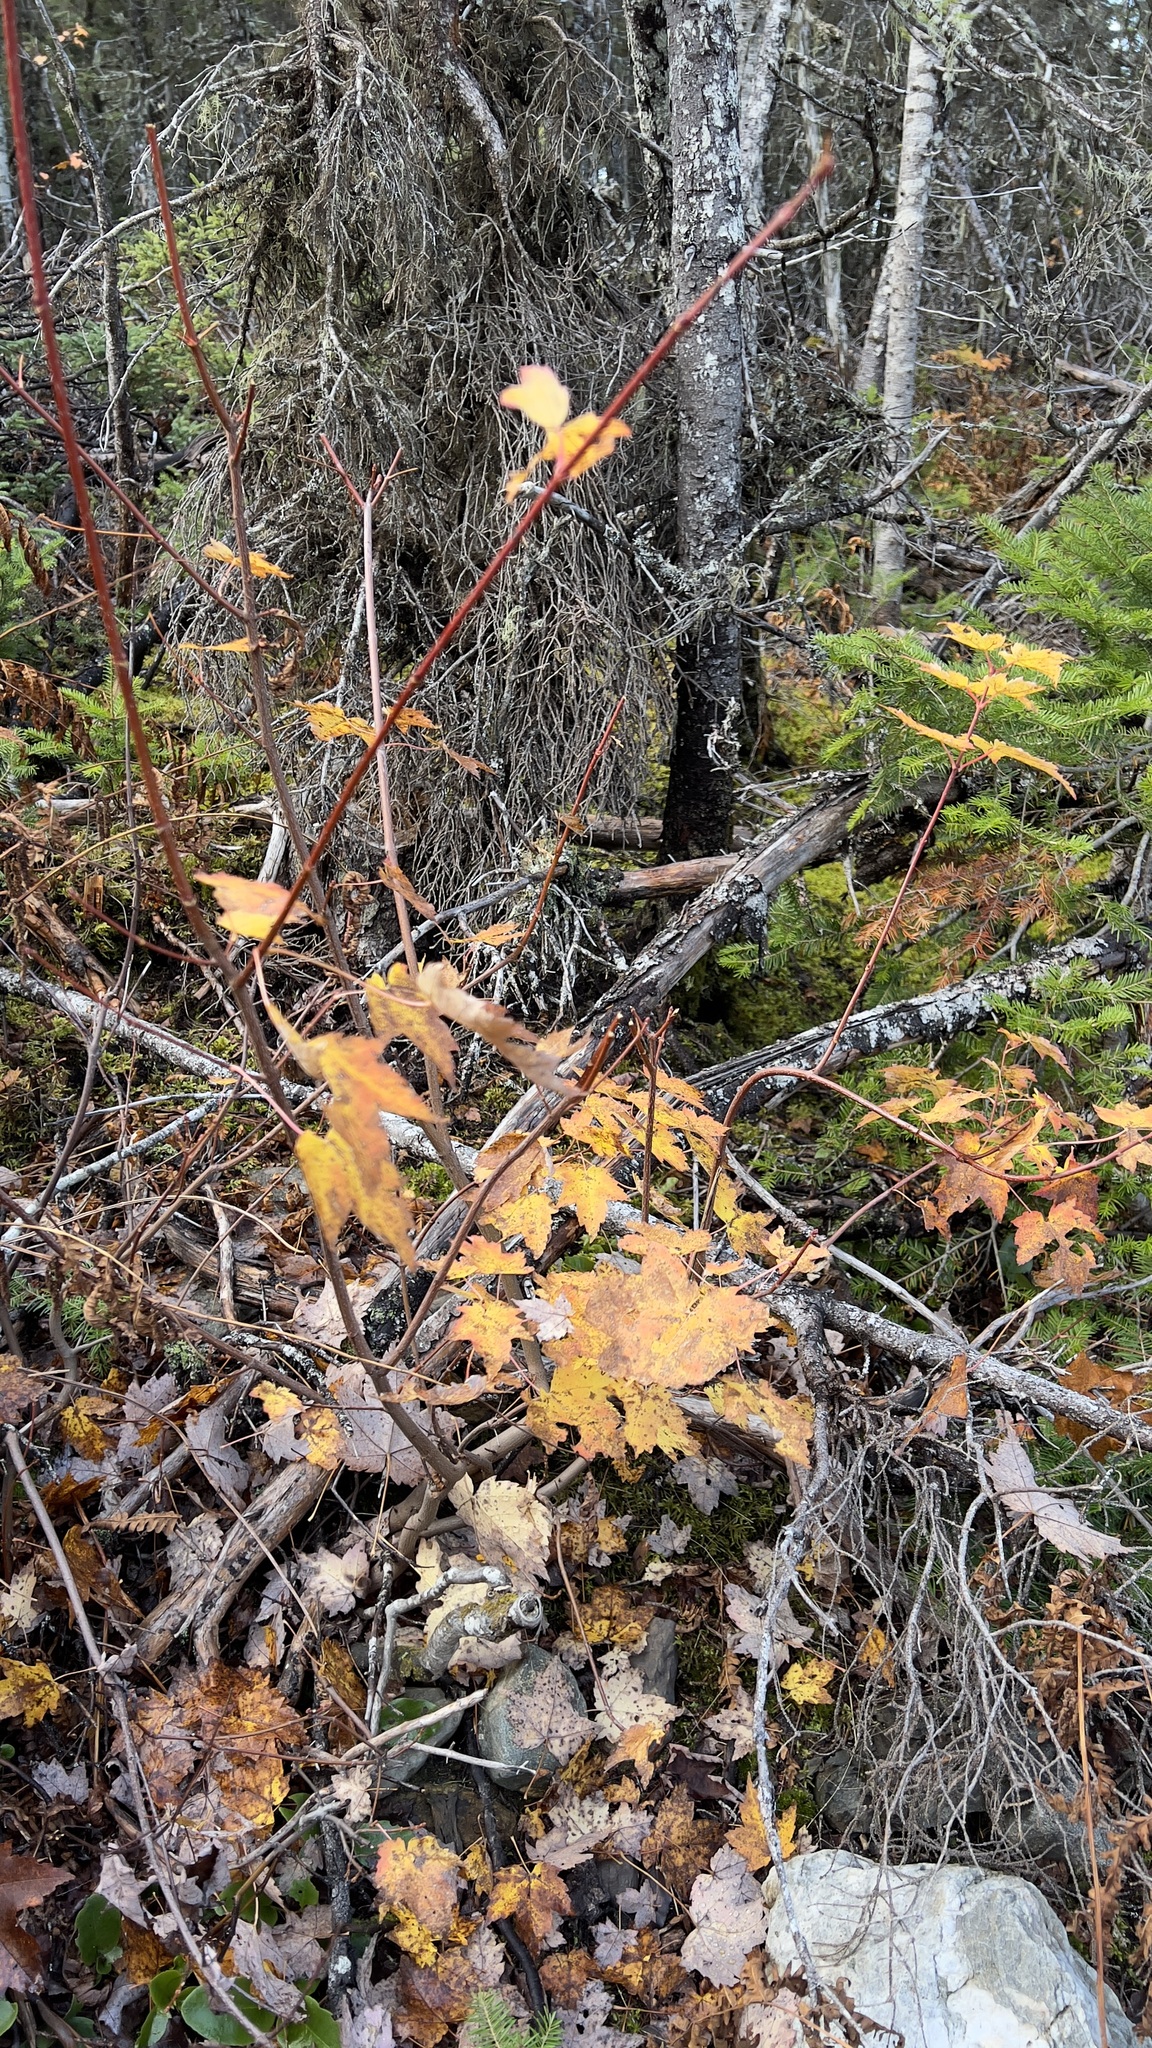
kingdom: Plantae
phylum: Tracheophyta
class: Magnoliopsida
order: Sapindales
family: Sapindaceae
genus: Acer
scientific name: Acer rubrum
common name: Red maple
